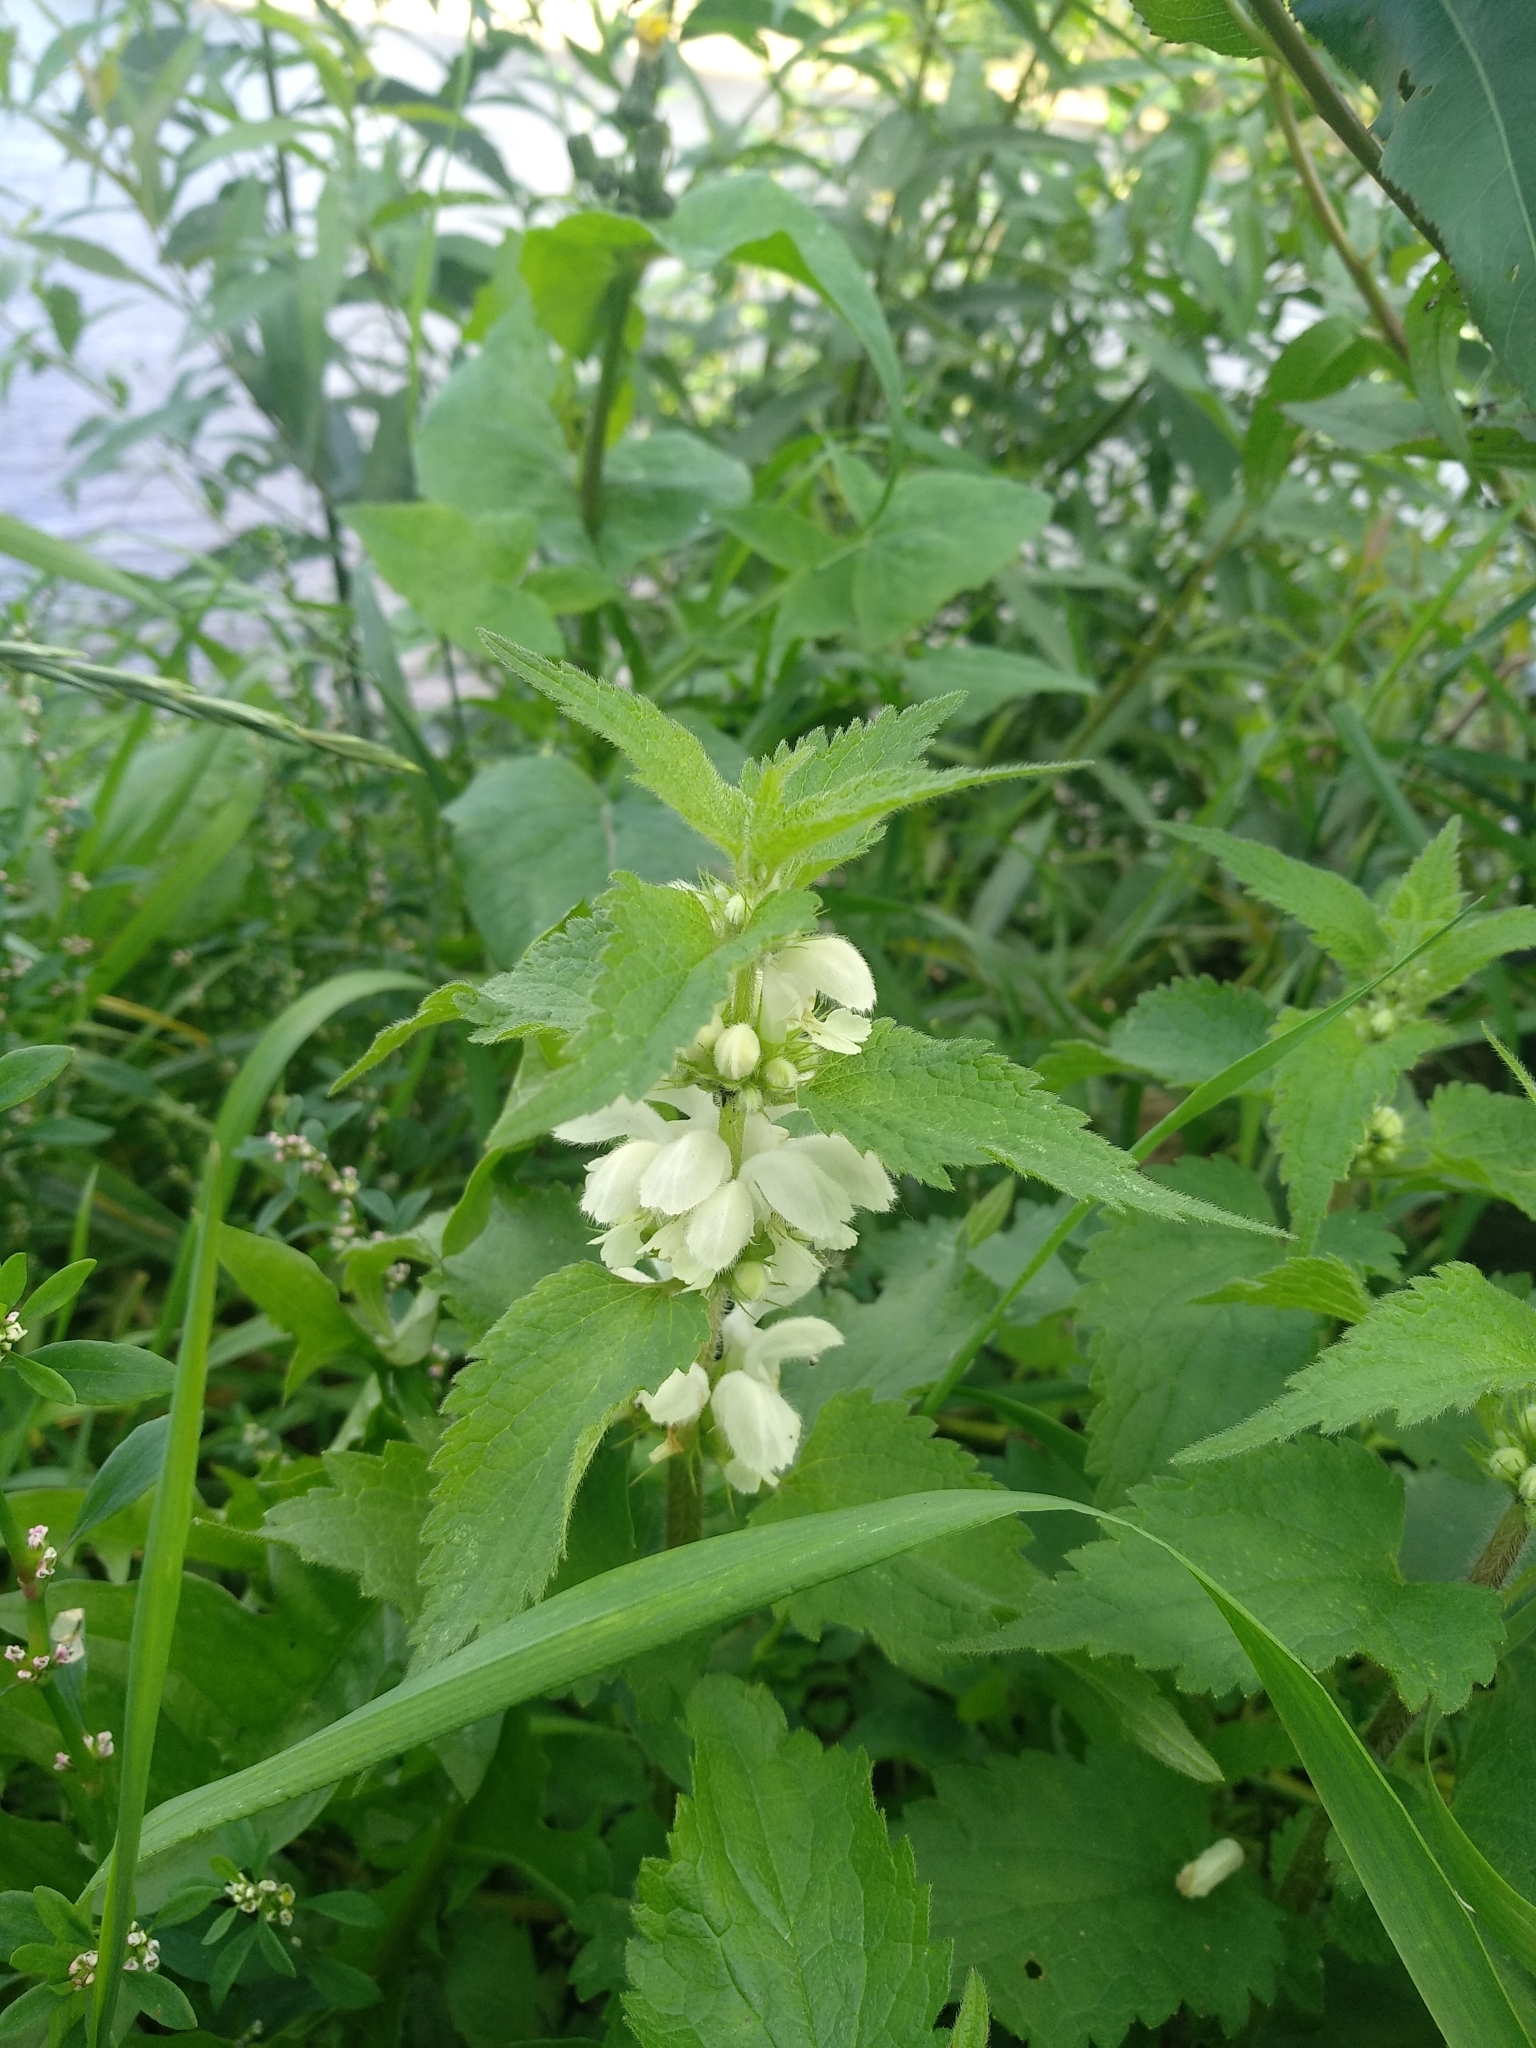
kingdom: Plantae
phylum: Tracheophyta
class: Magnoliopsida
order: Lamiales
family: Lamiaceae
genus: Lamium
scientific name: Lamium album
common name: White dead-nettle
